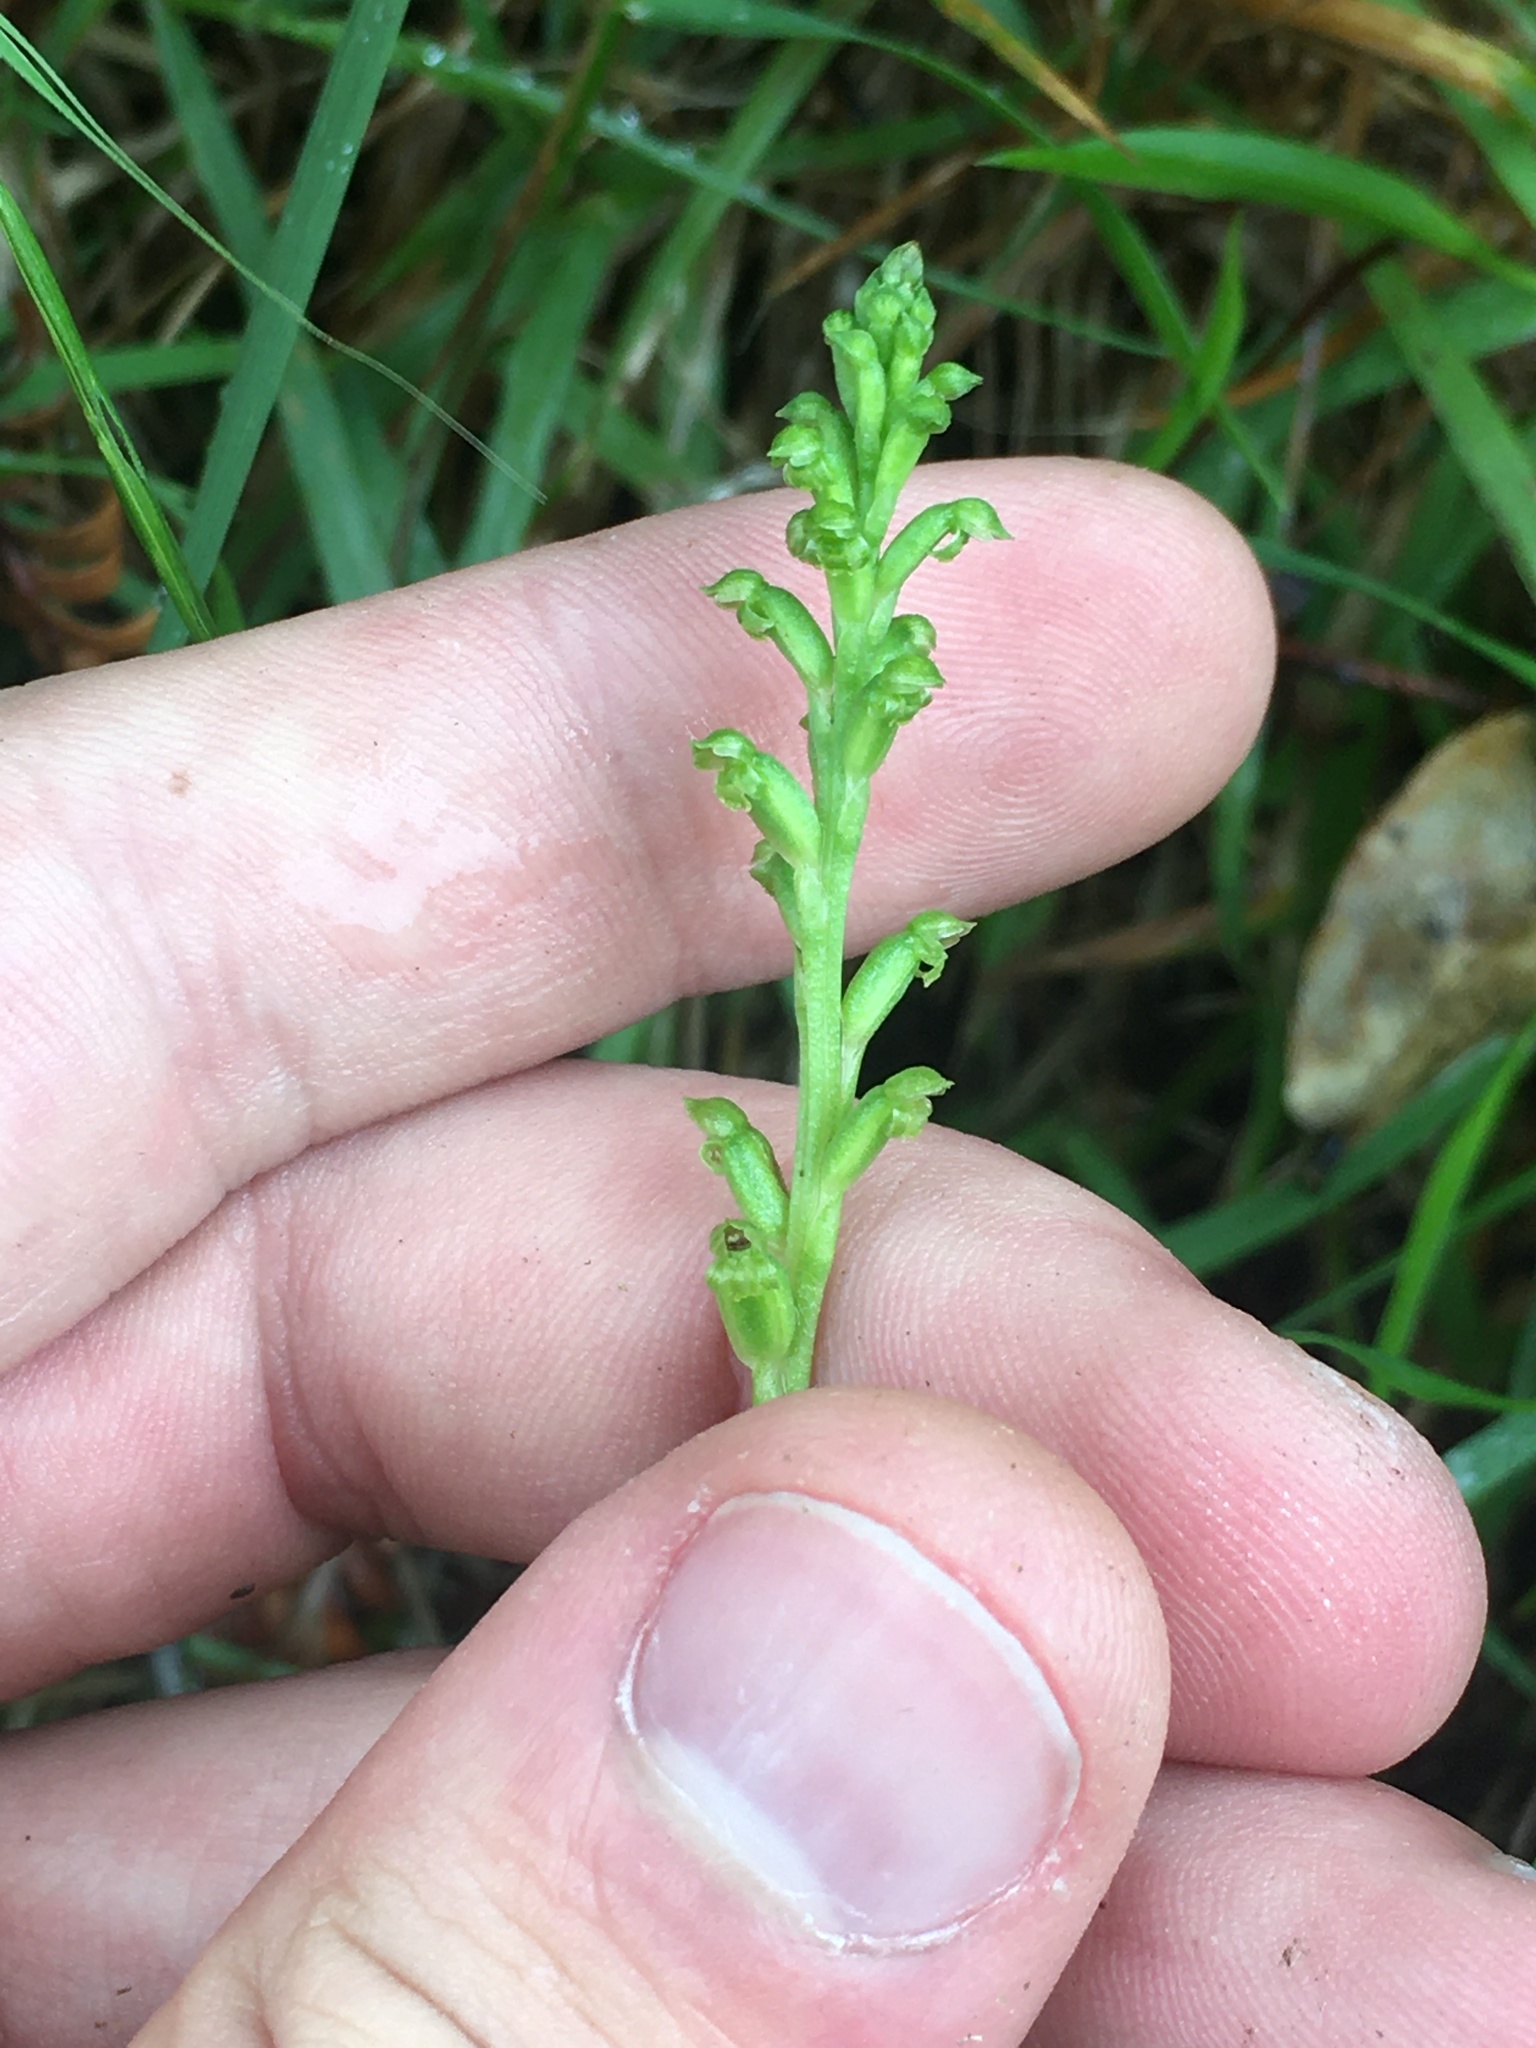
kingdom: Plantae
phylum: Tracheophyta
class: Liliopsida
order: Asparagales
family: Orchidaceae
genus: Microtis
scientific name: Microtis unifolia
